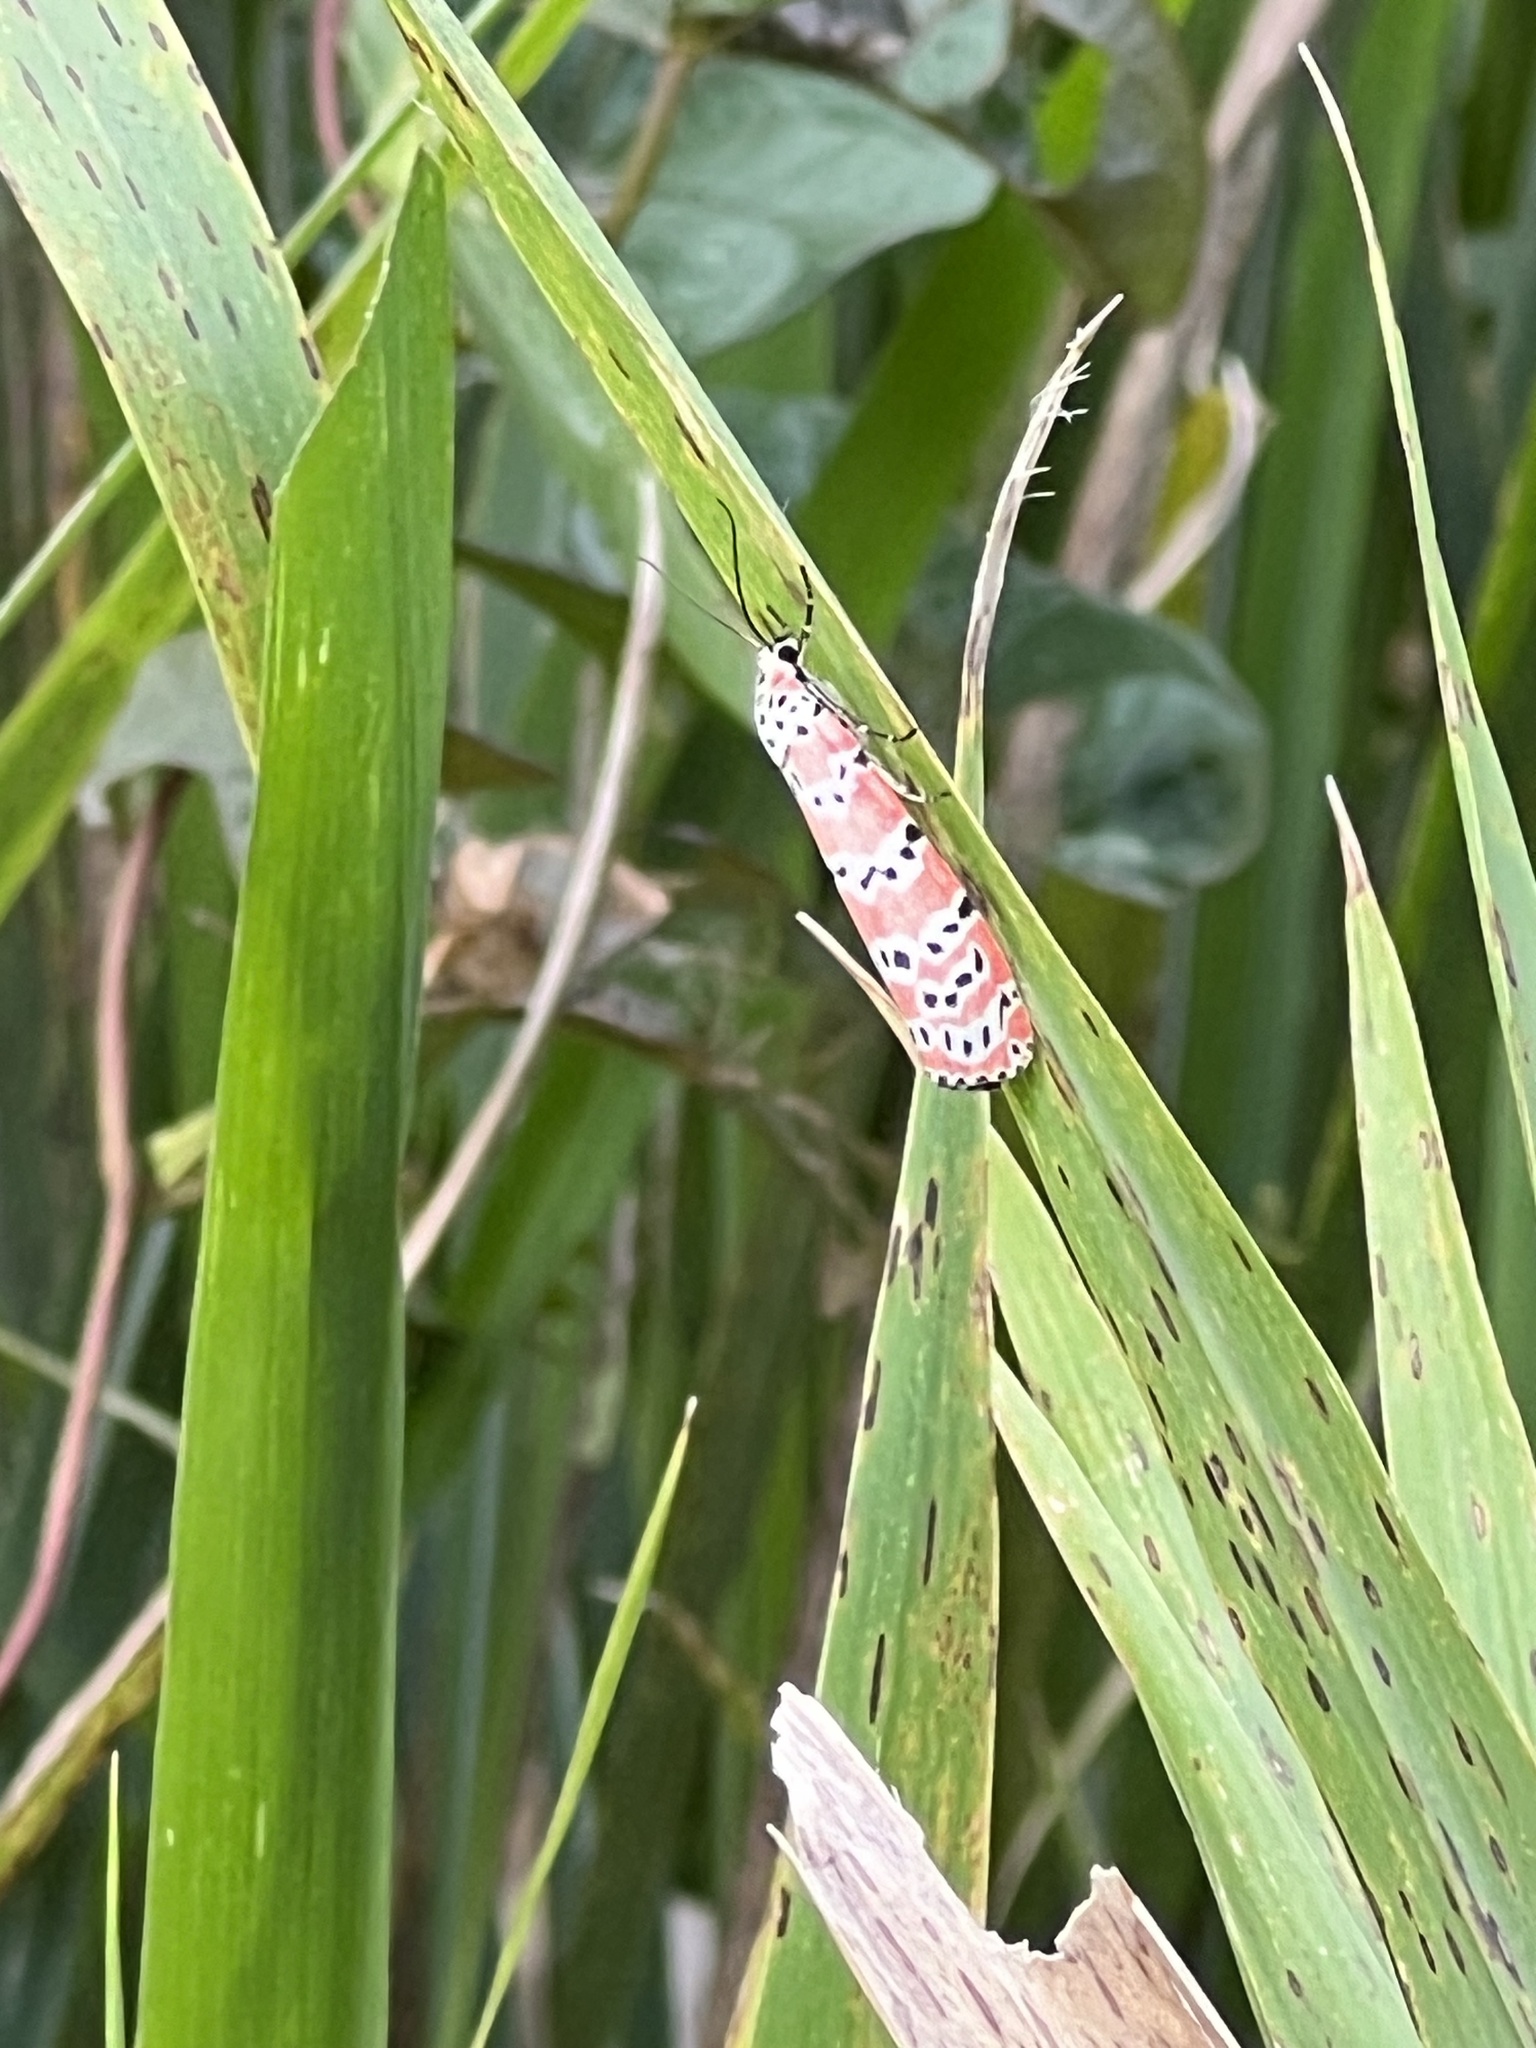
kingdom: Animalia
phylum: Arthropoda
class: Insecta
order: Lepidoptera
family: Erebidae
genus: Utetheisa
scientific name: Utetheisa ornatrix
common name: Beautiful utetheisa
